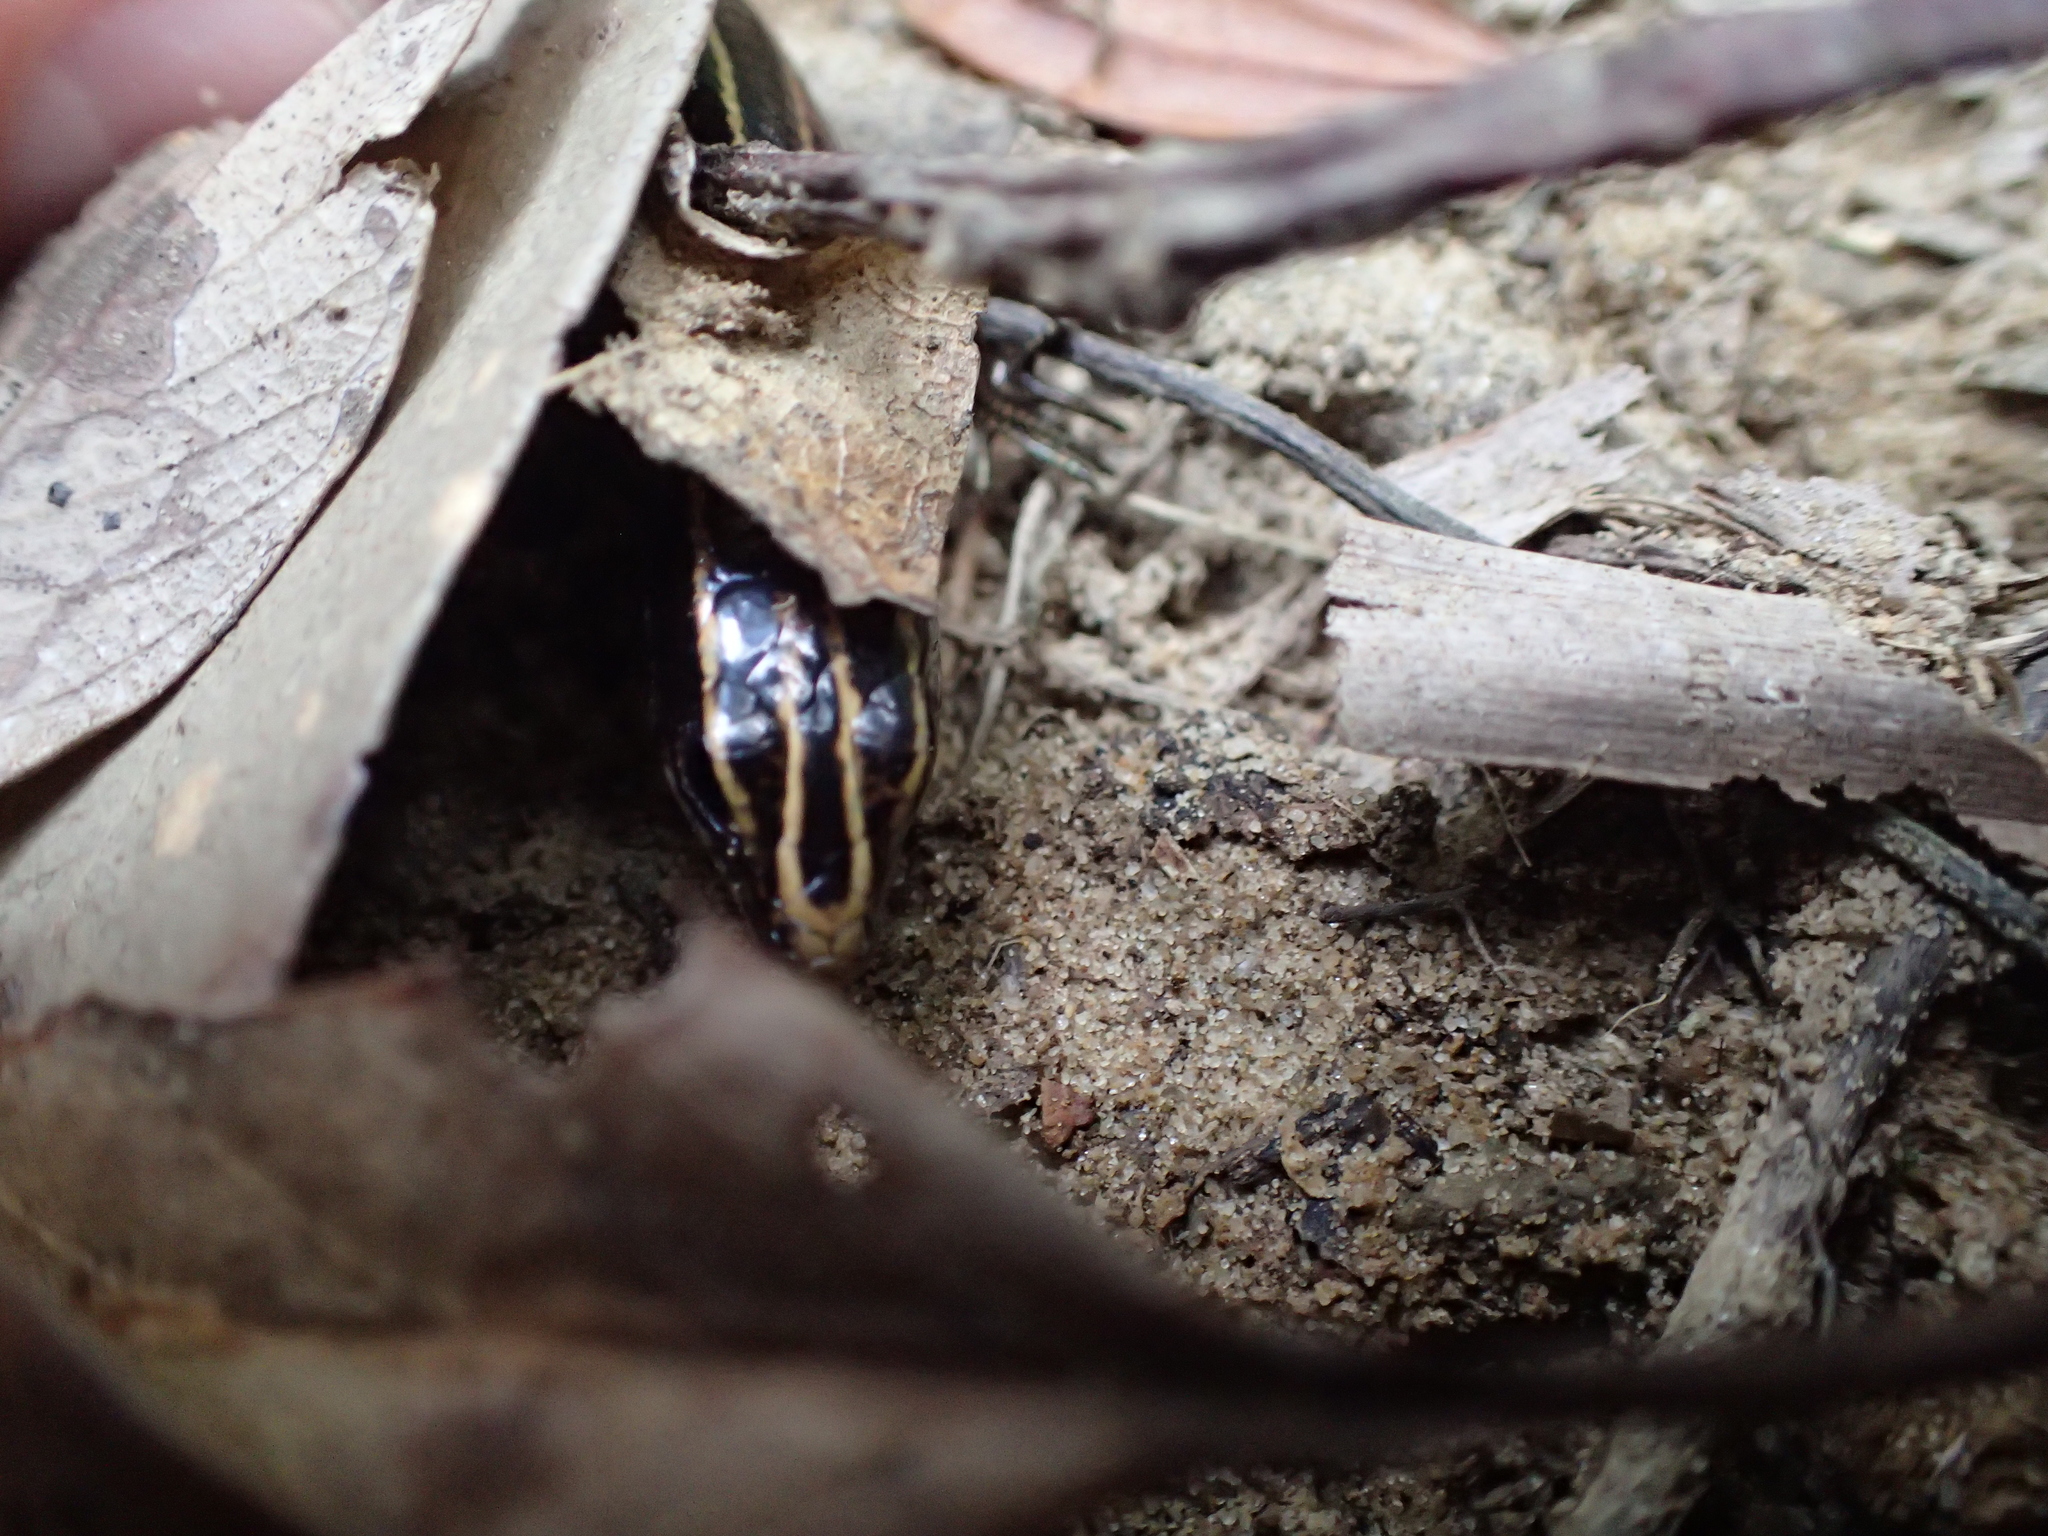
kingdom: Animalia
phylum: Chordata
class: Squamata
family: Scincidae
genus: Plestiodon
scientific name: Plestiodon stimpsonii
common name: Stimpson's skink
